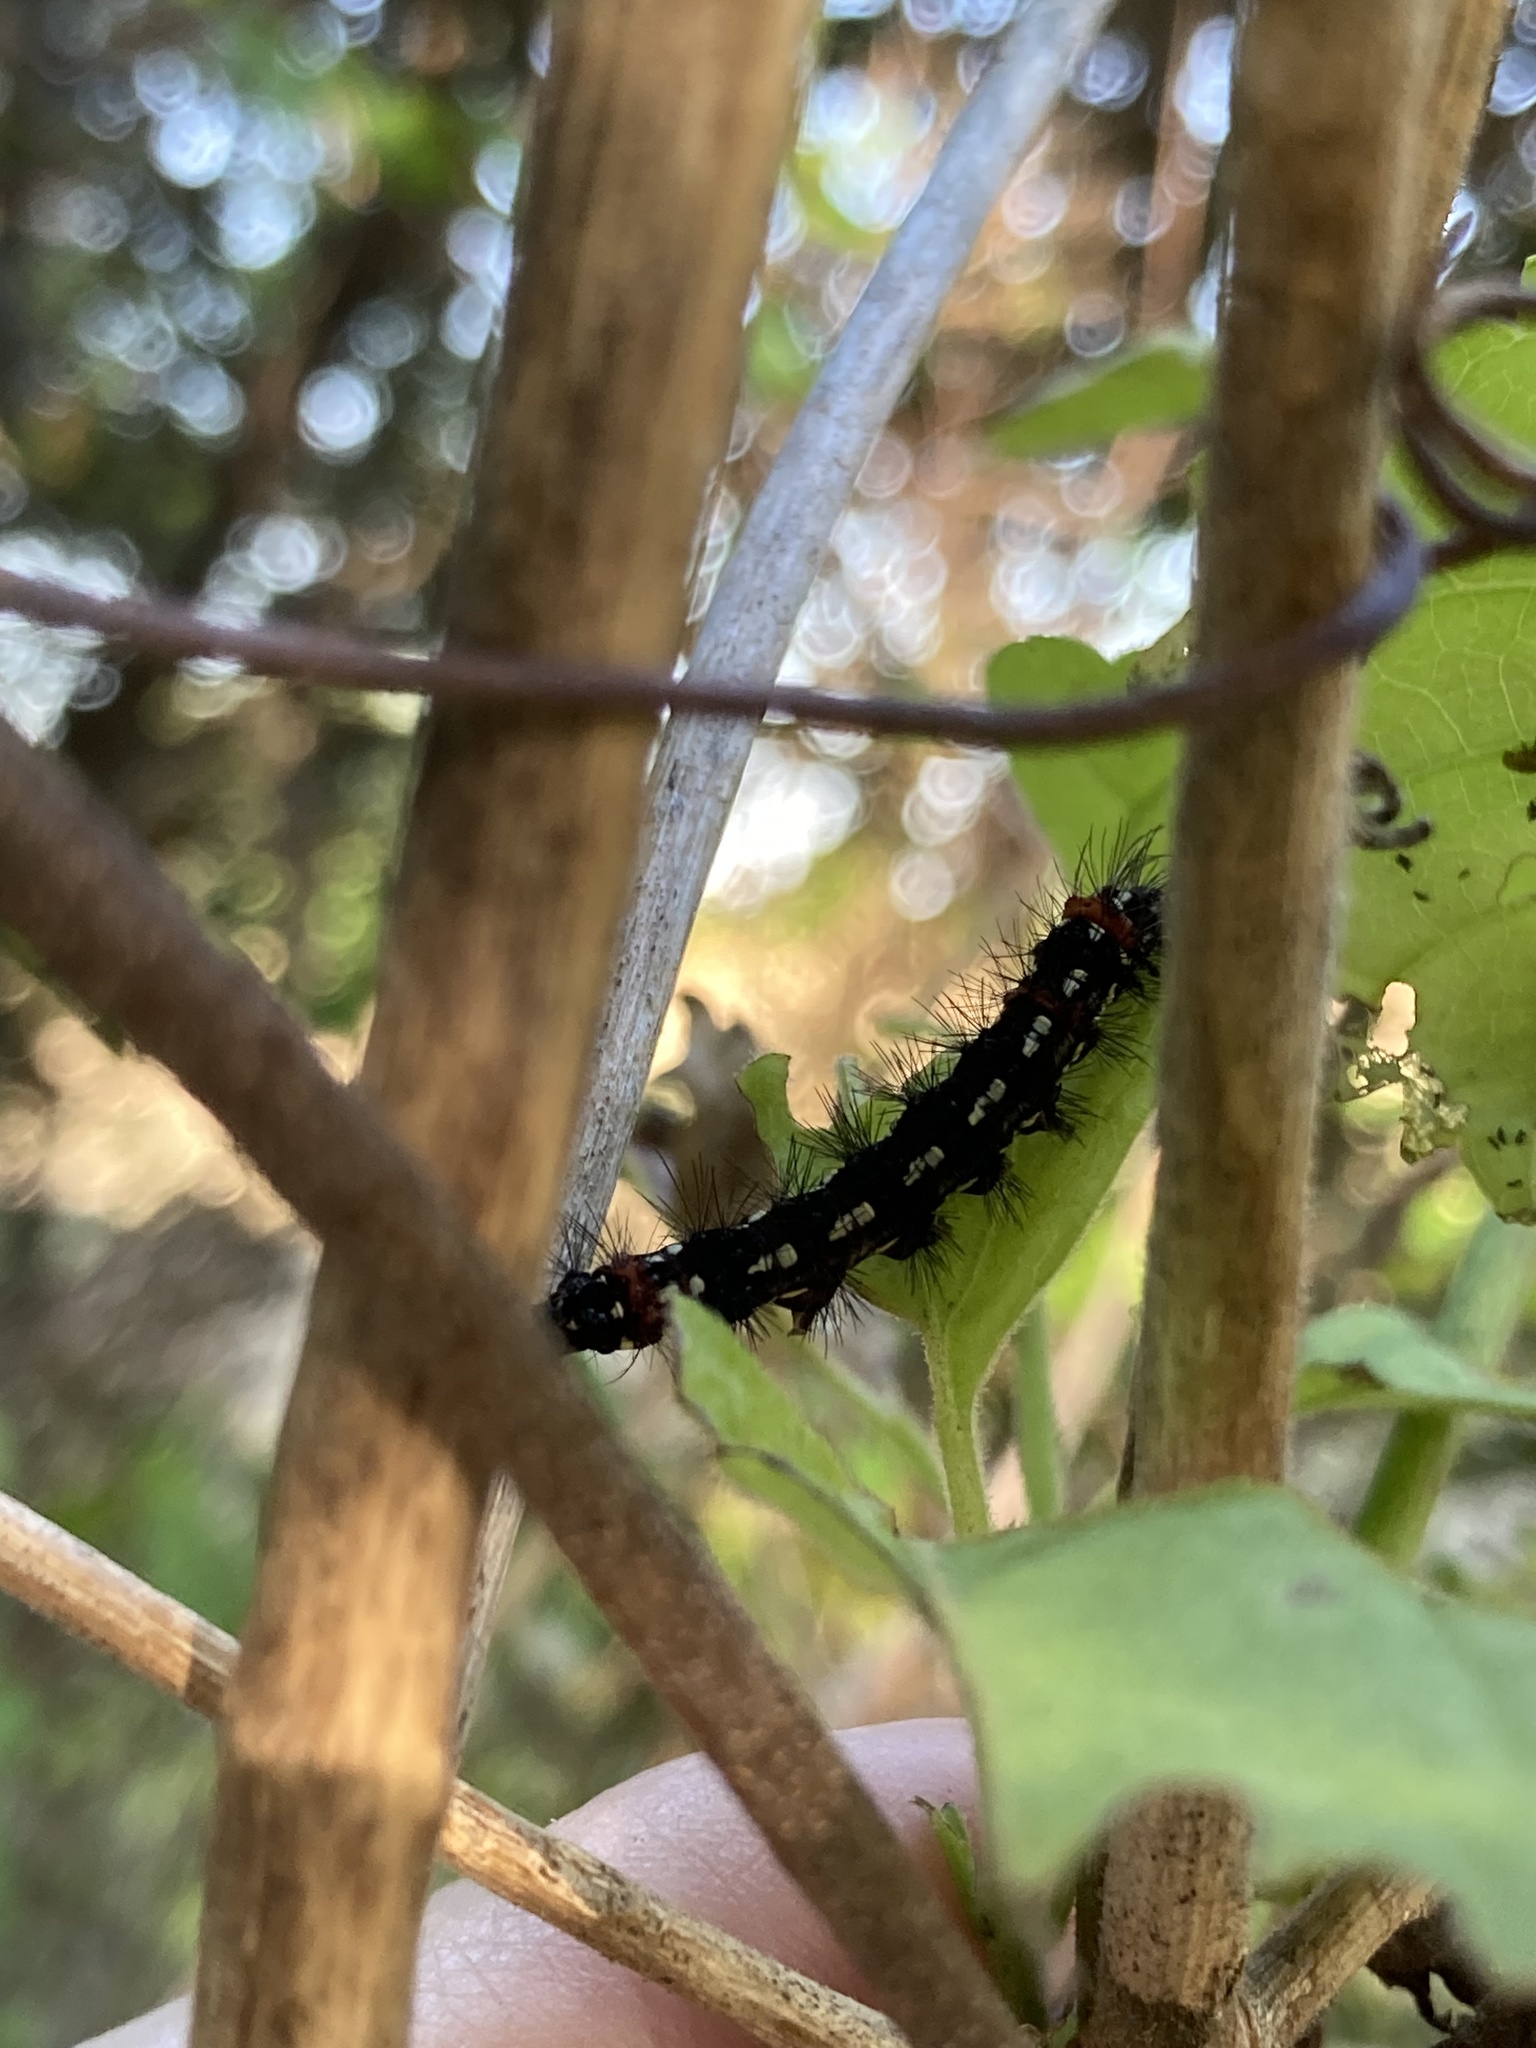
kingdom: Animalia
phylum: Arthropoda
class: Insecta
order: Lepidoptera
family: Erebidae
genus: Pareuchaetes
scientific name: Pareuchaetes insulata
